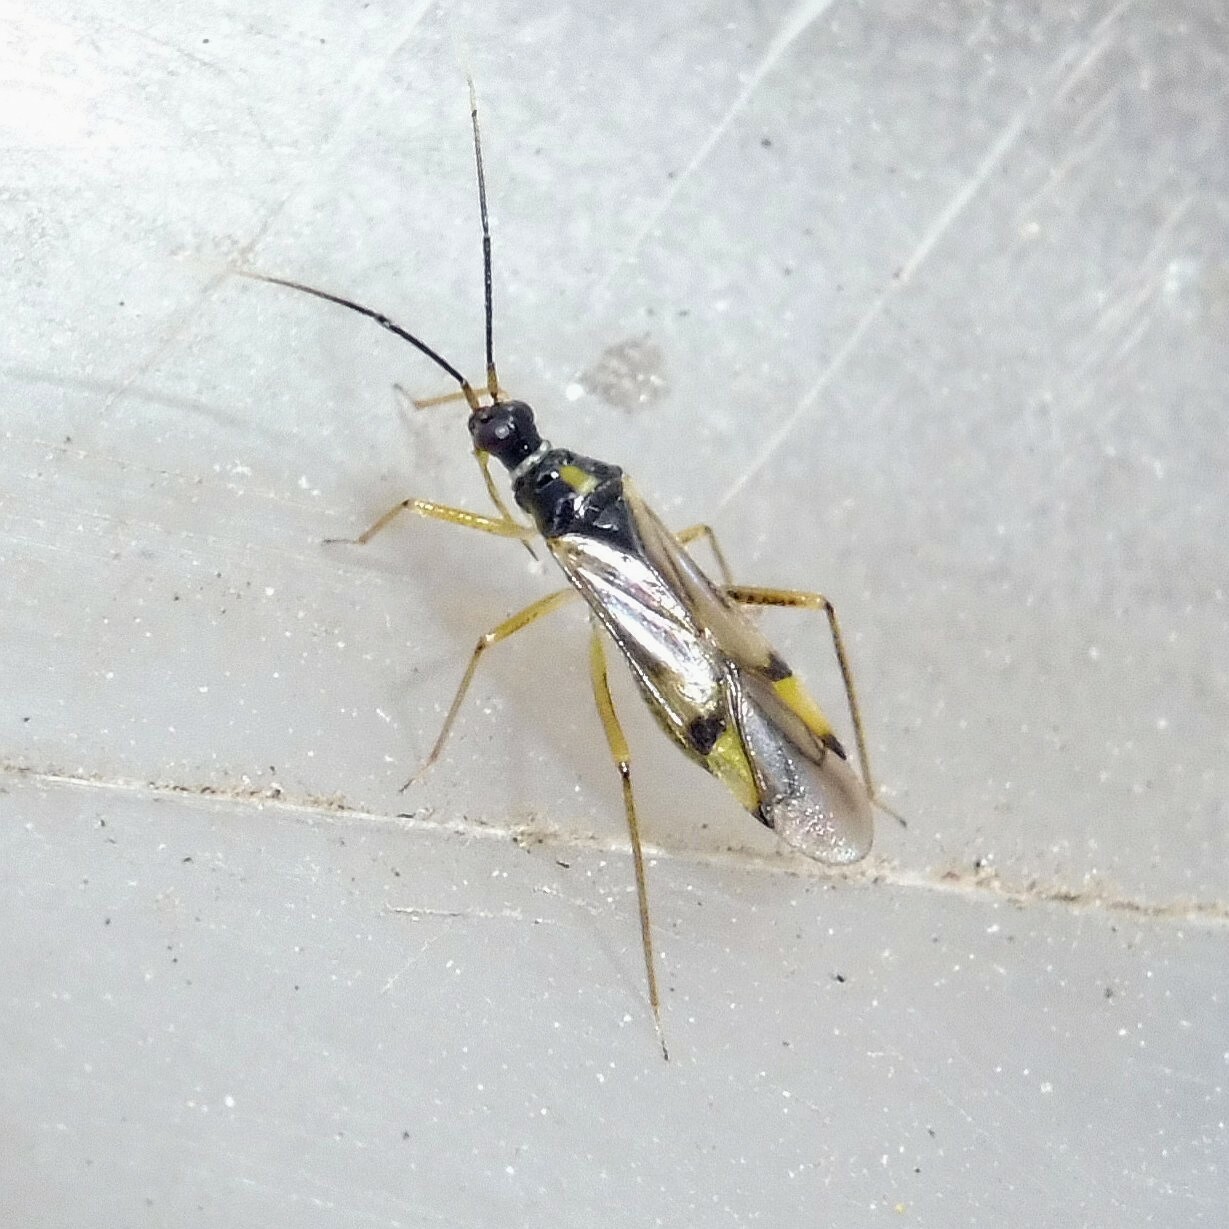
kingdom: Animalia
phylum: Arthropoda
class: Insecta
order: Hemiptera
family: Miridae
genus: Tupiocoris
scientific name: Tupiocoris rhododendri
